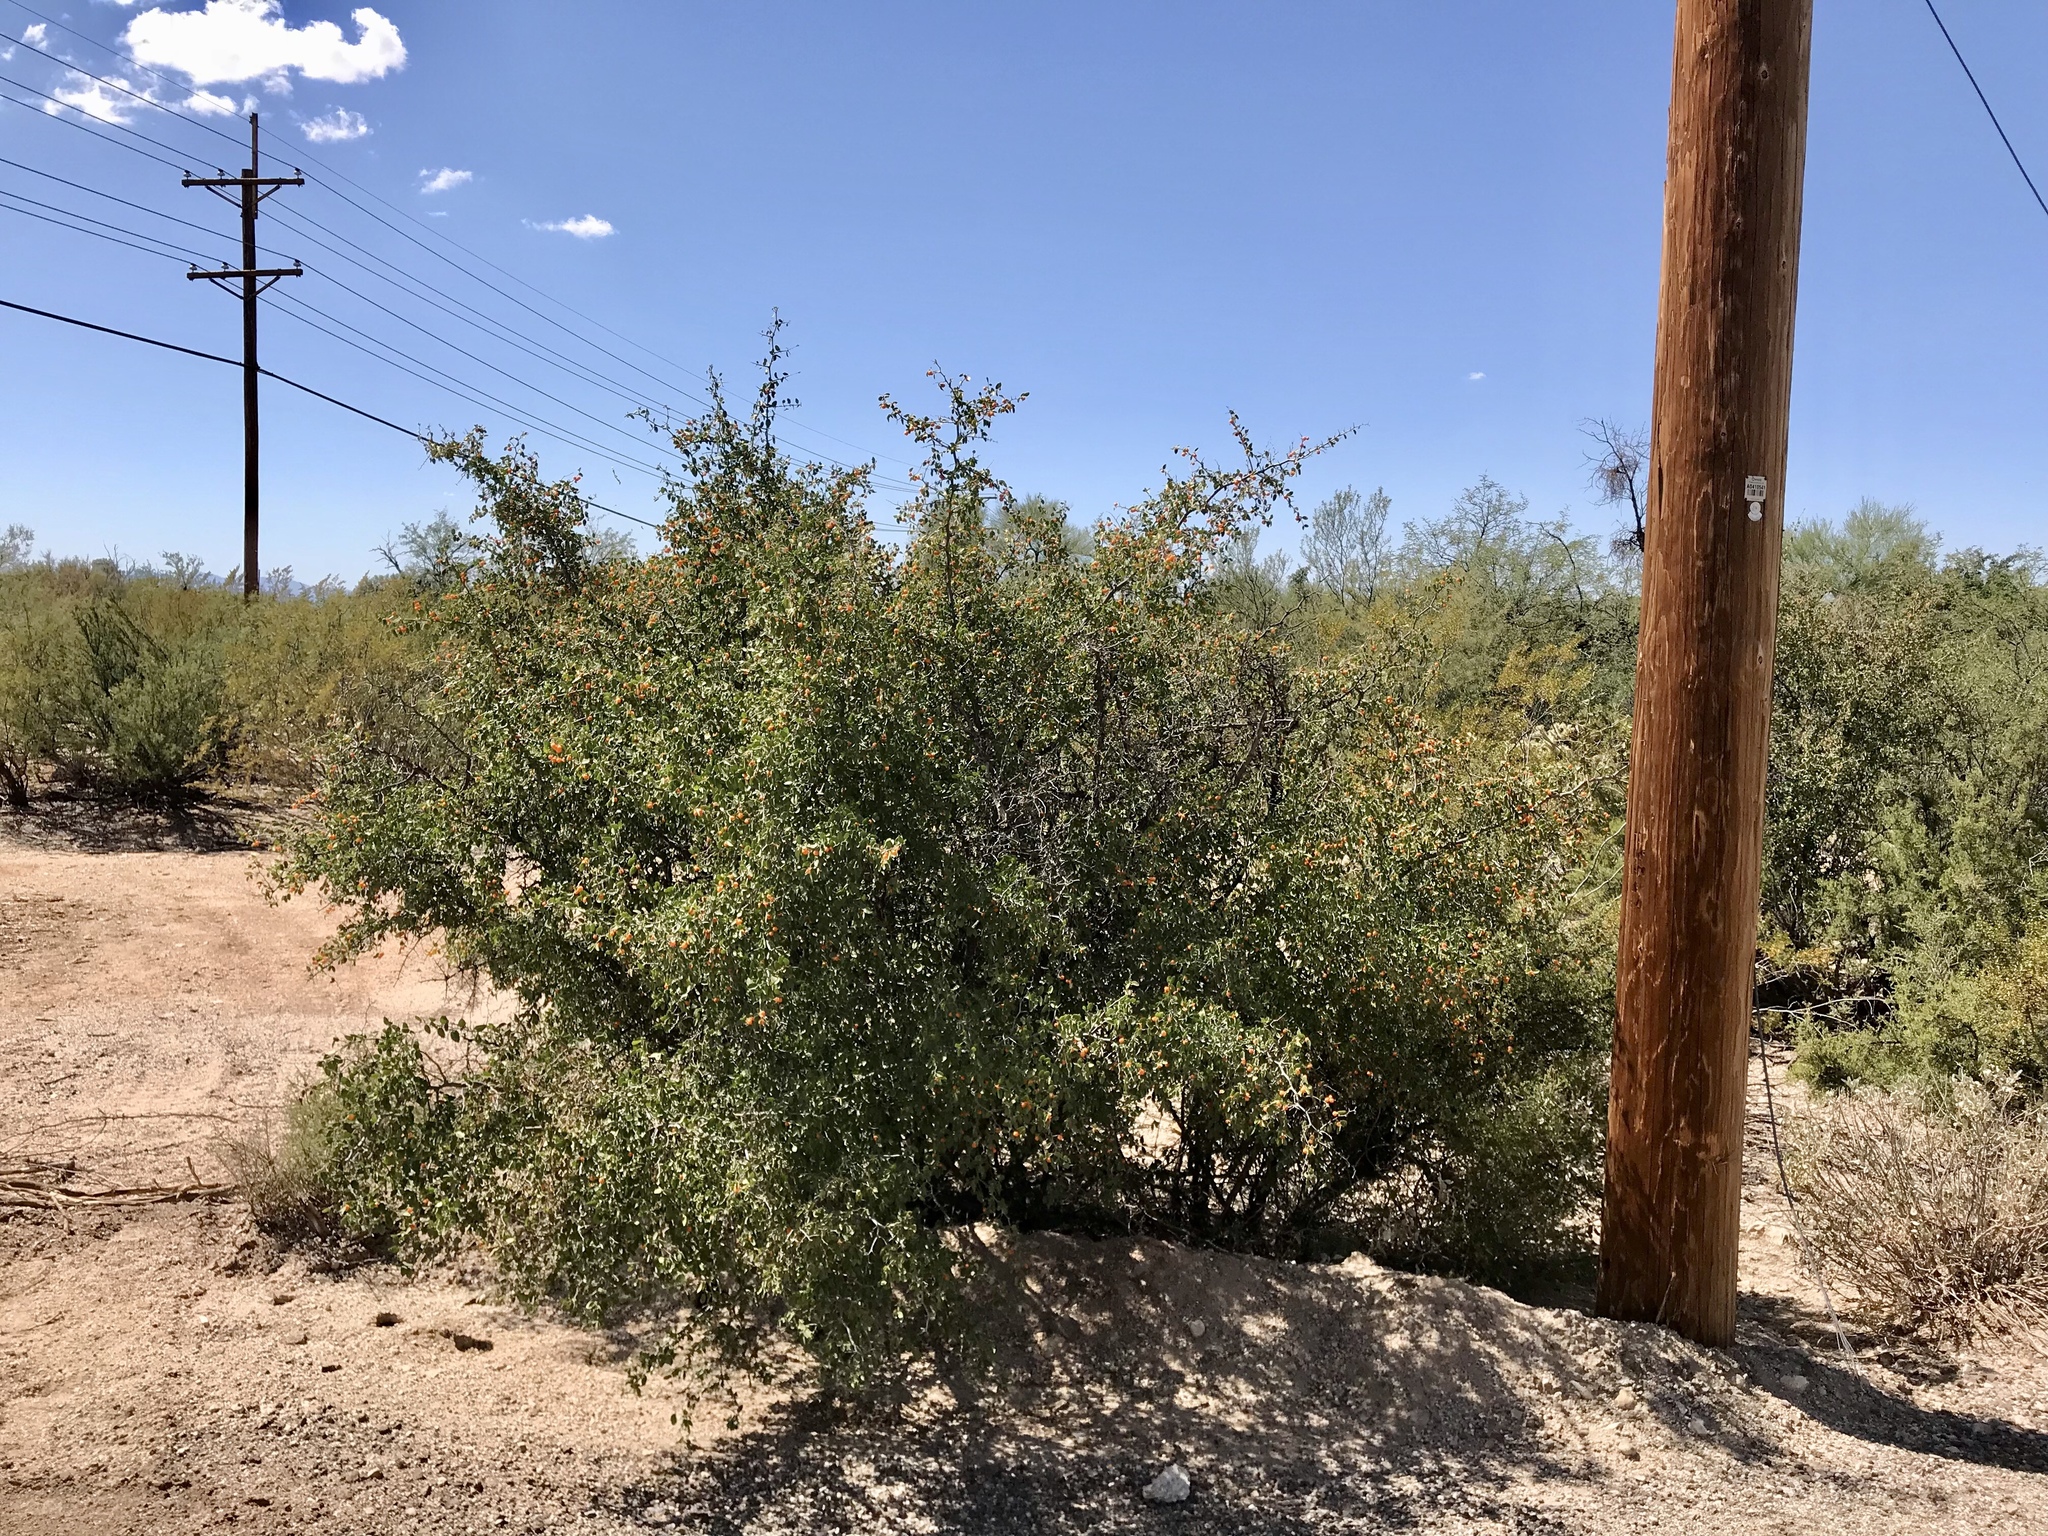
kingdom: Plantae
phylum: Tracheophyta
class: Magnoliopsida
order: Rosales
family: Cannabaceae
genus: Celtis
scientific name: Celtis pallida
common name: Desert hackberry
